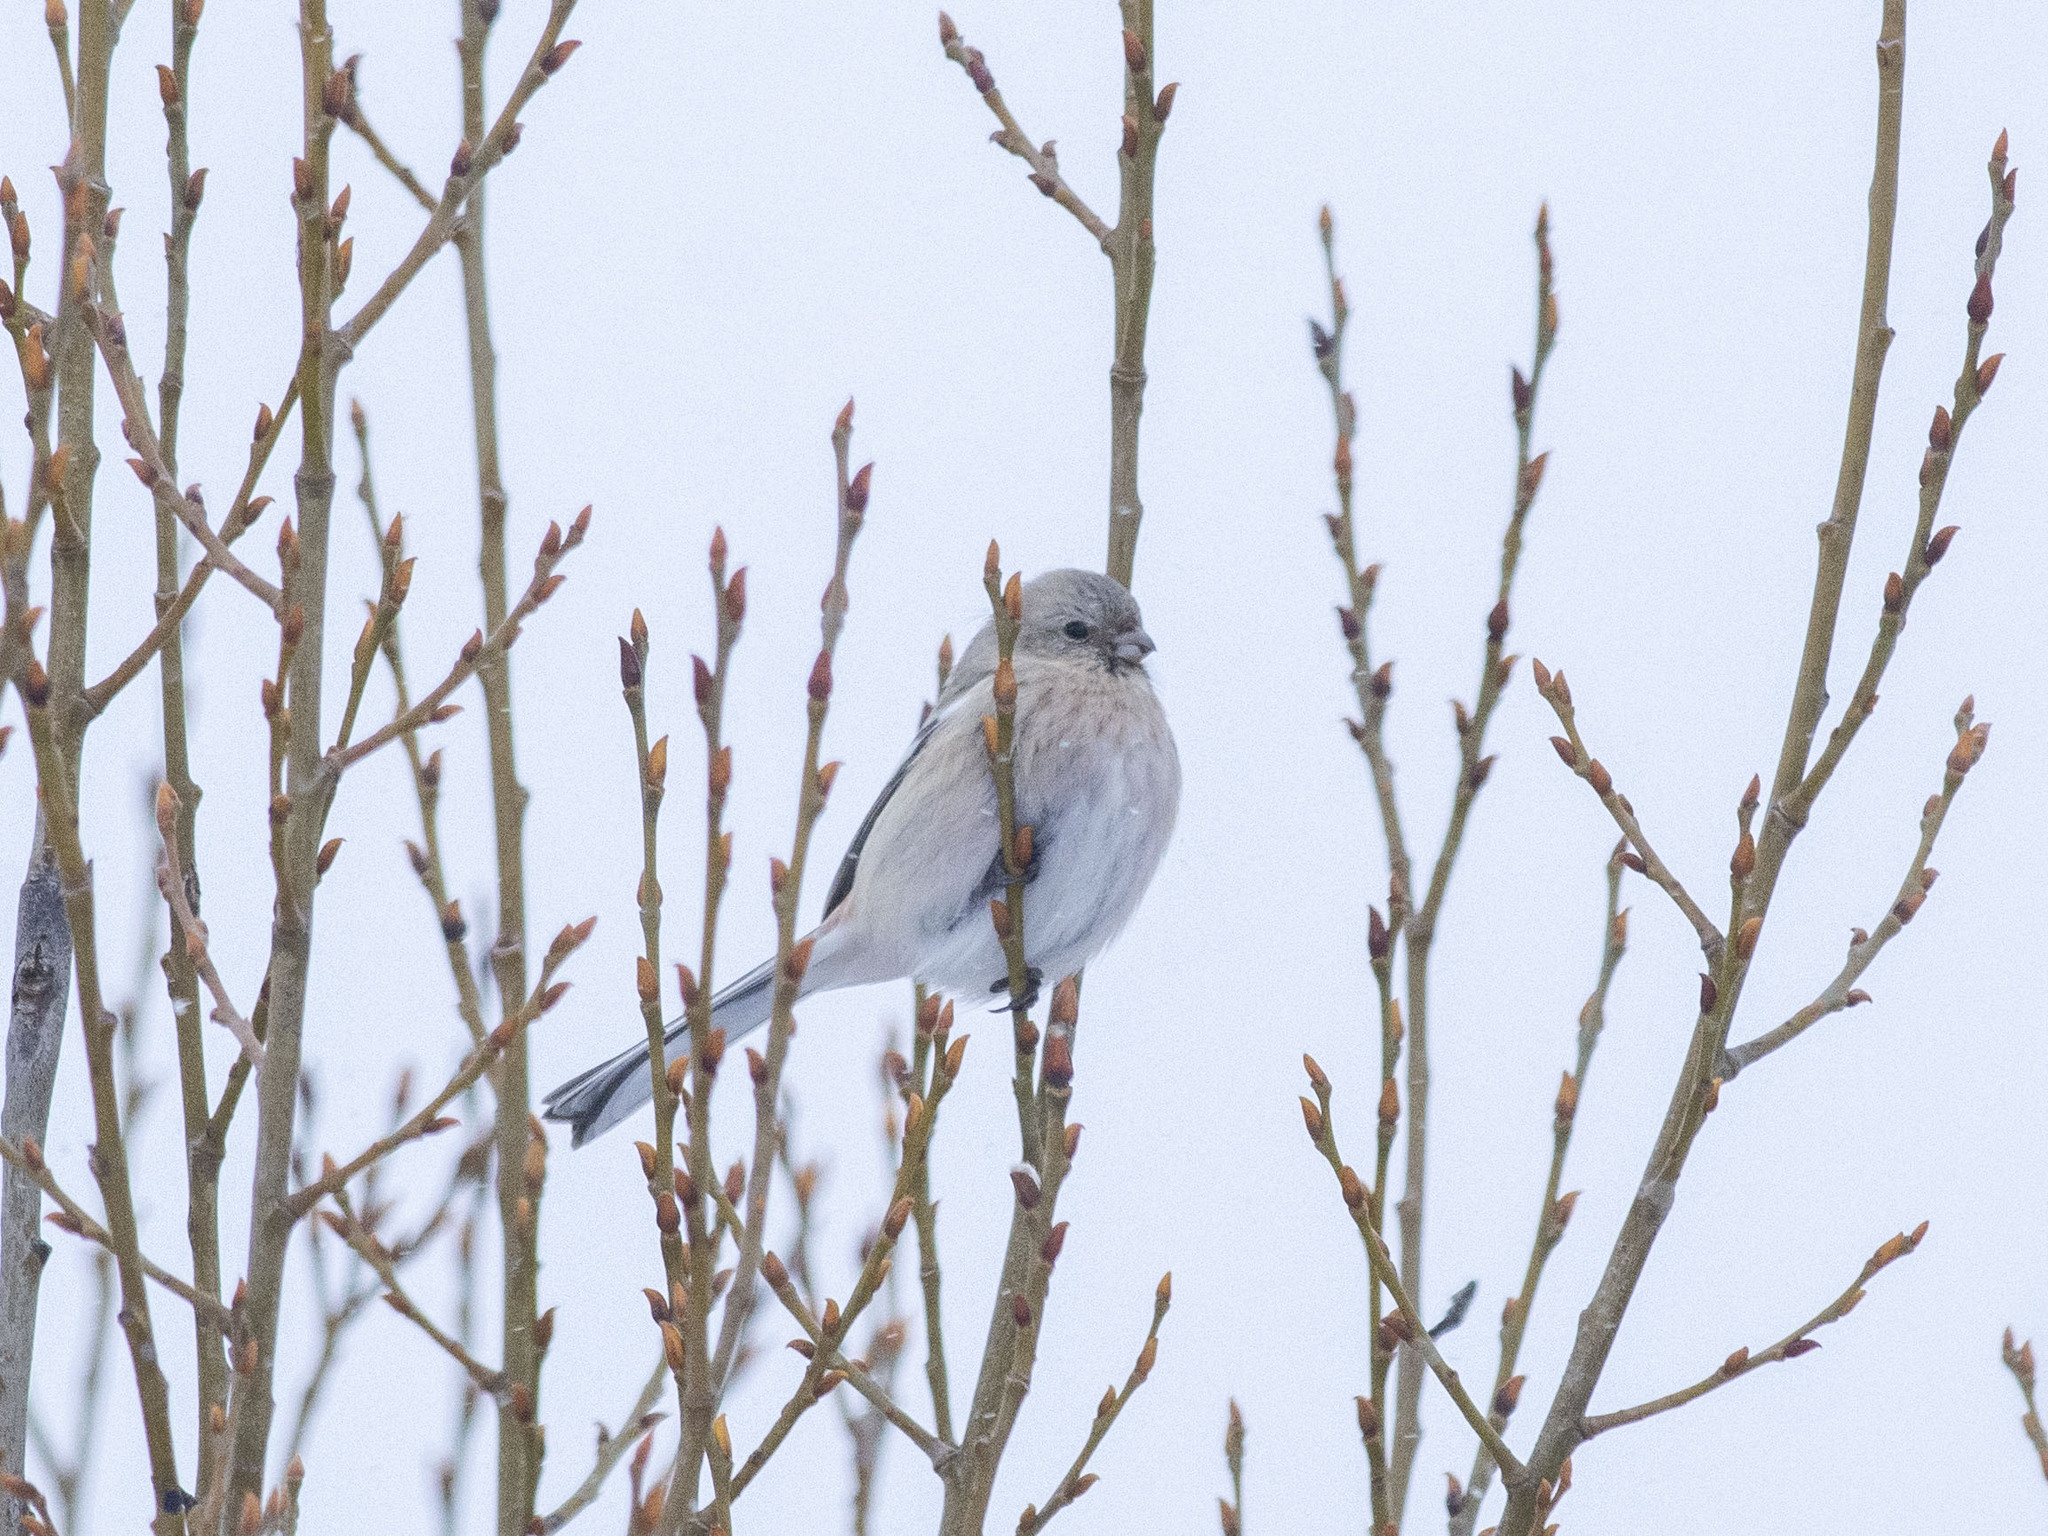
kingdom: Animalia
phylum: Chordata
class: Aves
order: Passeriformes
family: Fringillidae
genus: Carpodacus
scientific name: Carpodacus sibiricus
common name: Long-tailed rosefinch
